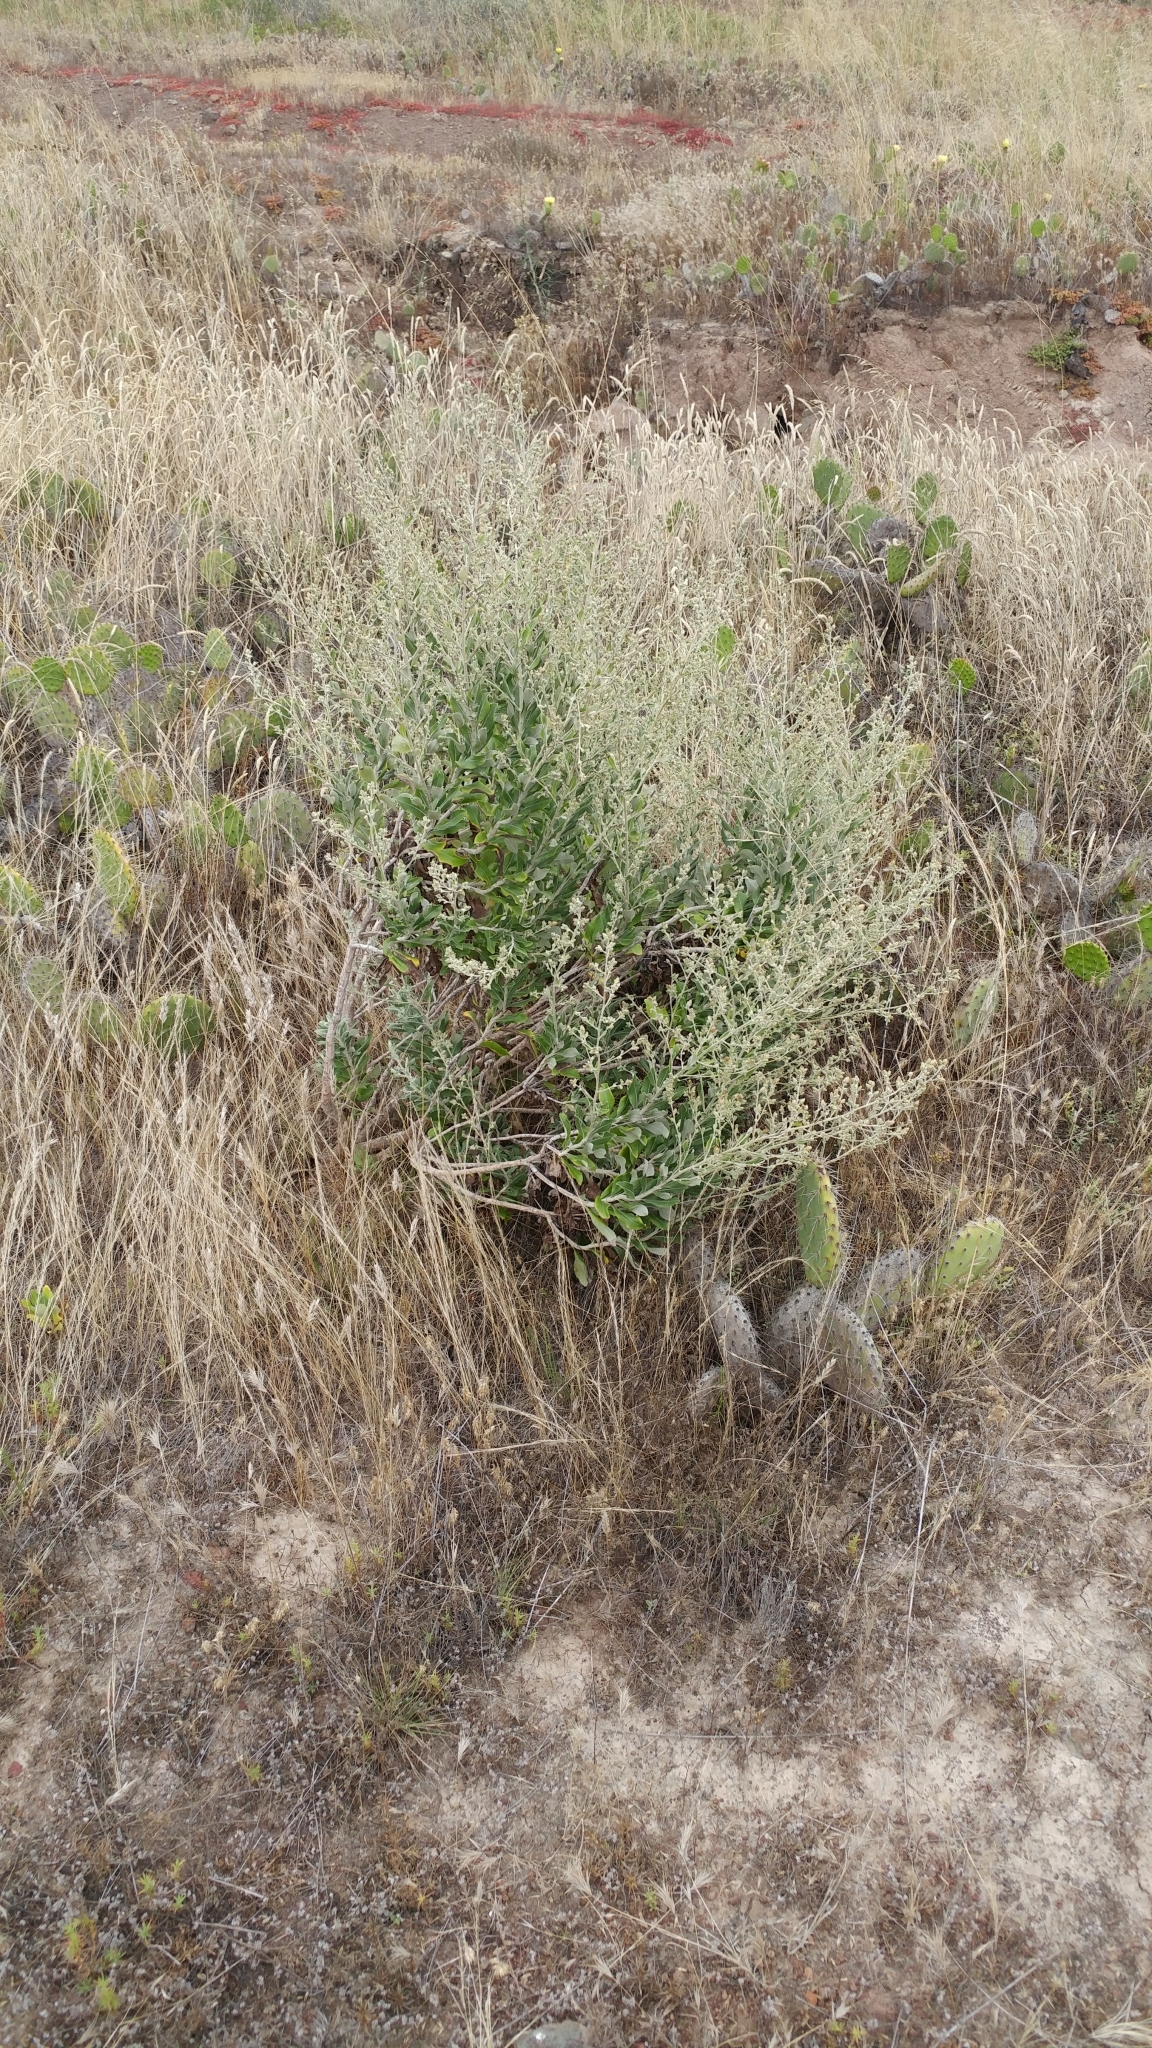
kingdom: Plantae
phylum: Tracheophyta
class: Magnoliopsida
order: Asterales
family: Asteraceae
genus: Hazardia
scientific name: Hazardia cana
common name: San clemente island bristleweed
